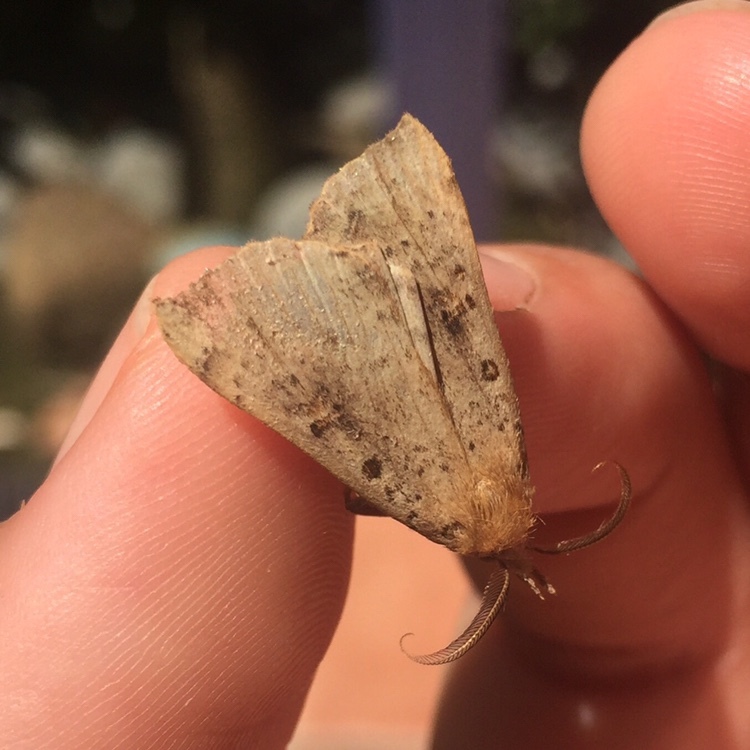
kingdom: Animalia
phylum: Arthropoda
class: Insecta
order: Lepidoptera
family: Erebidae
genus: Rhapsa
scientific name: Rhapsa scotosialis
